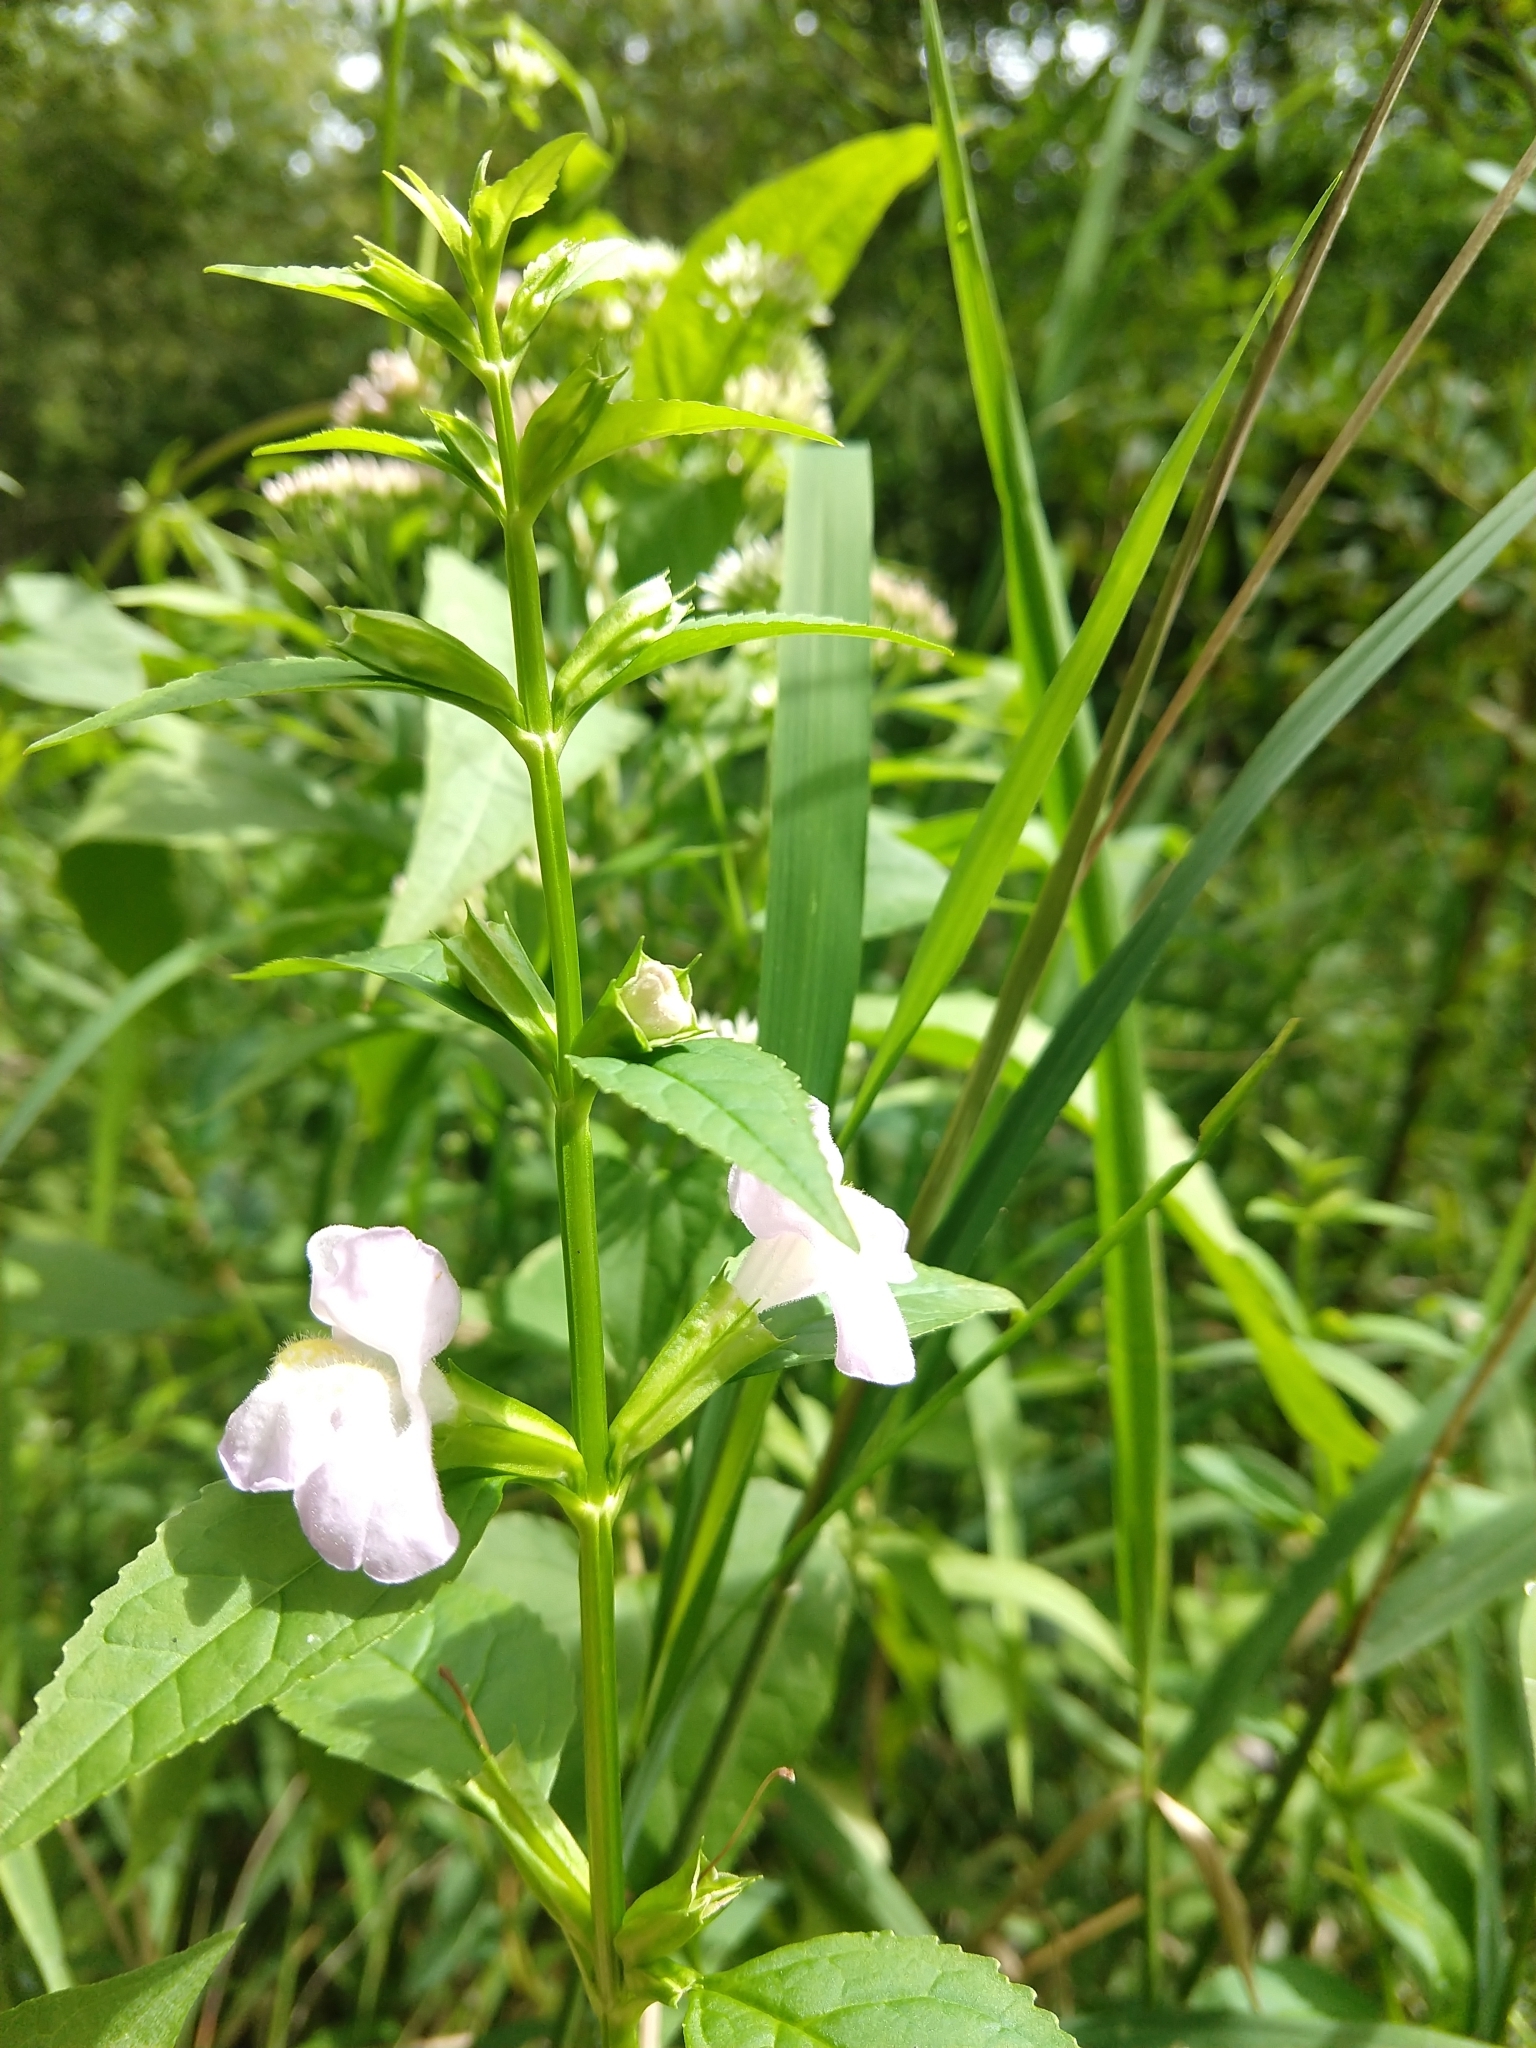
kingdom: Plantae
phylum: Tracheophyta
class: Magnoliopsida
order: Lamiales
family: Phrymaceae
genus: Mimulus
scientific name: Mimulus alatus
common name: Sharp-wing monkey-flower
